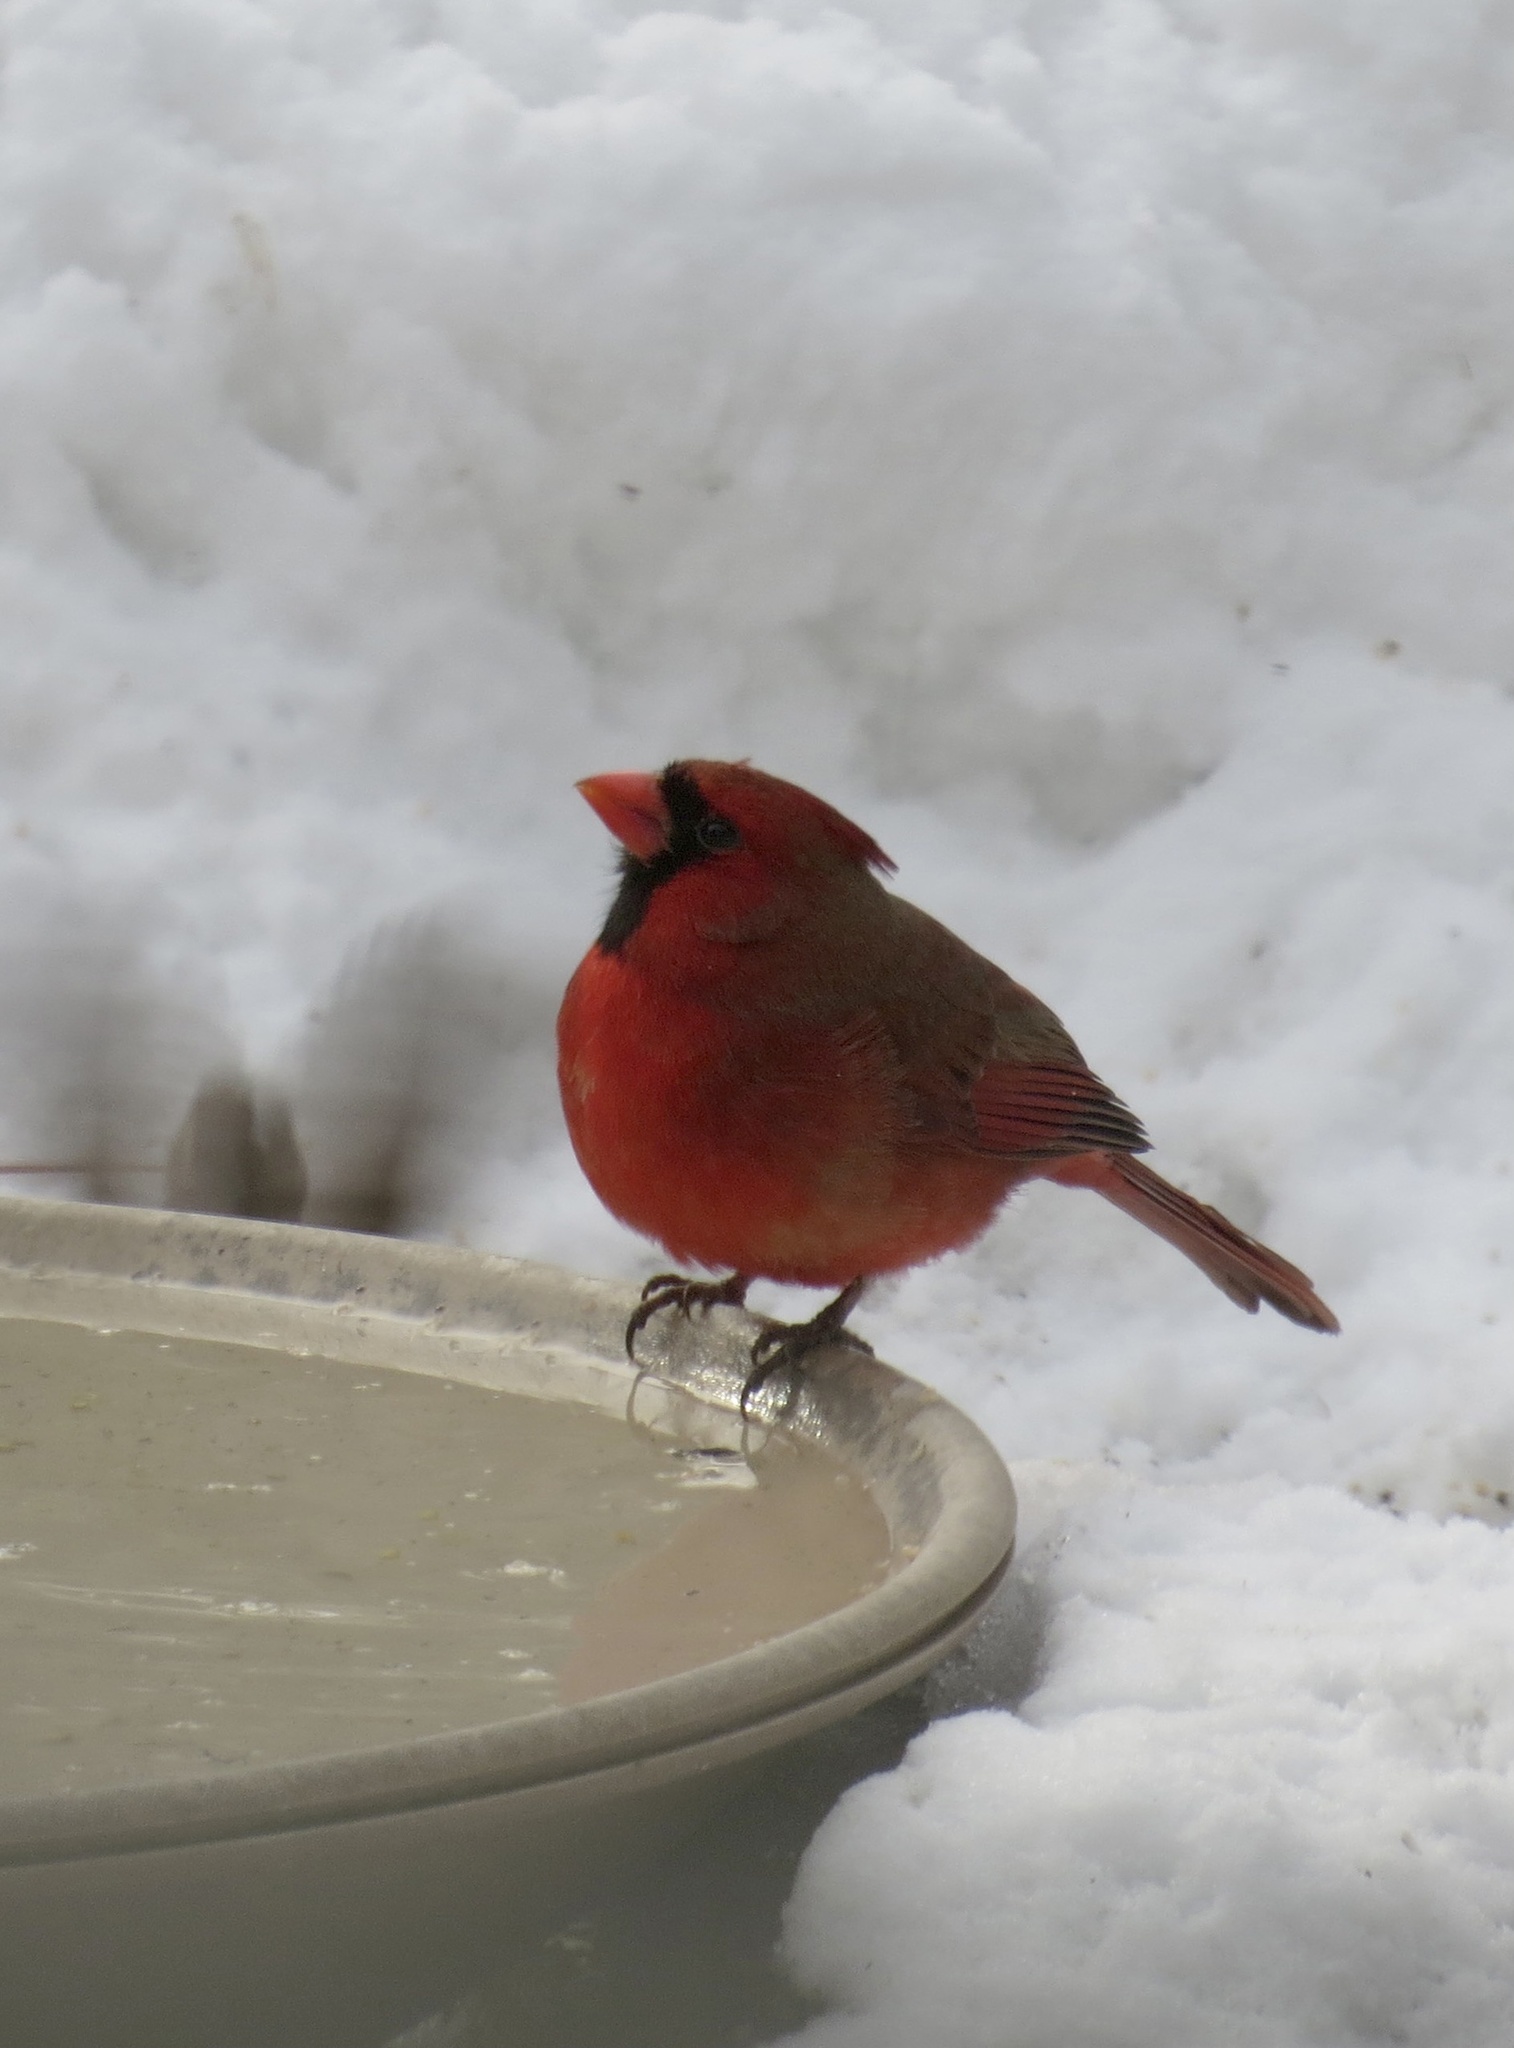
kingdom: Animalia
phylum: Chordata
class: Aves
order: Passeriformes
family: Cardinalidae
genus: Cardinalis
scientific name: Cardinalis cardinalis
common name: Northern cardinal
